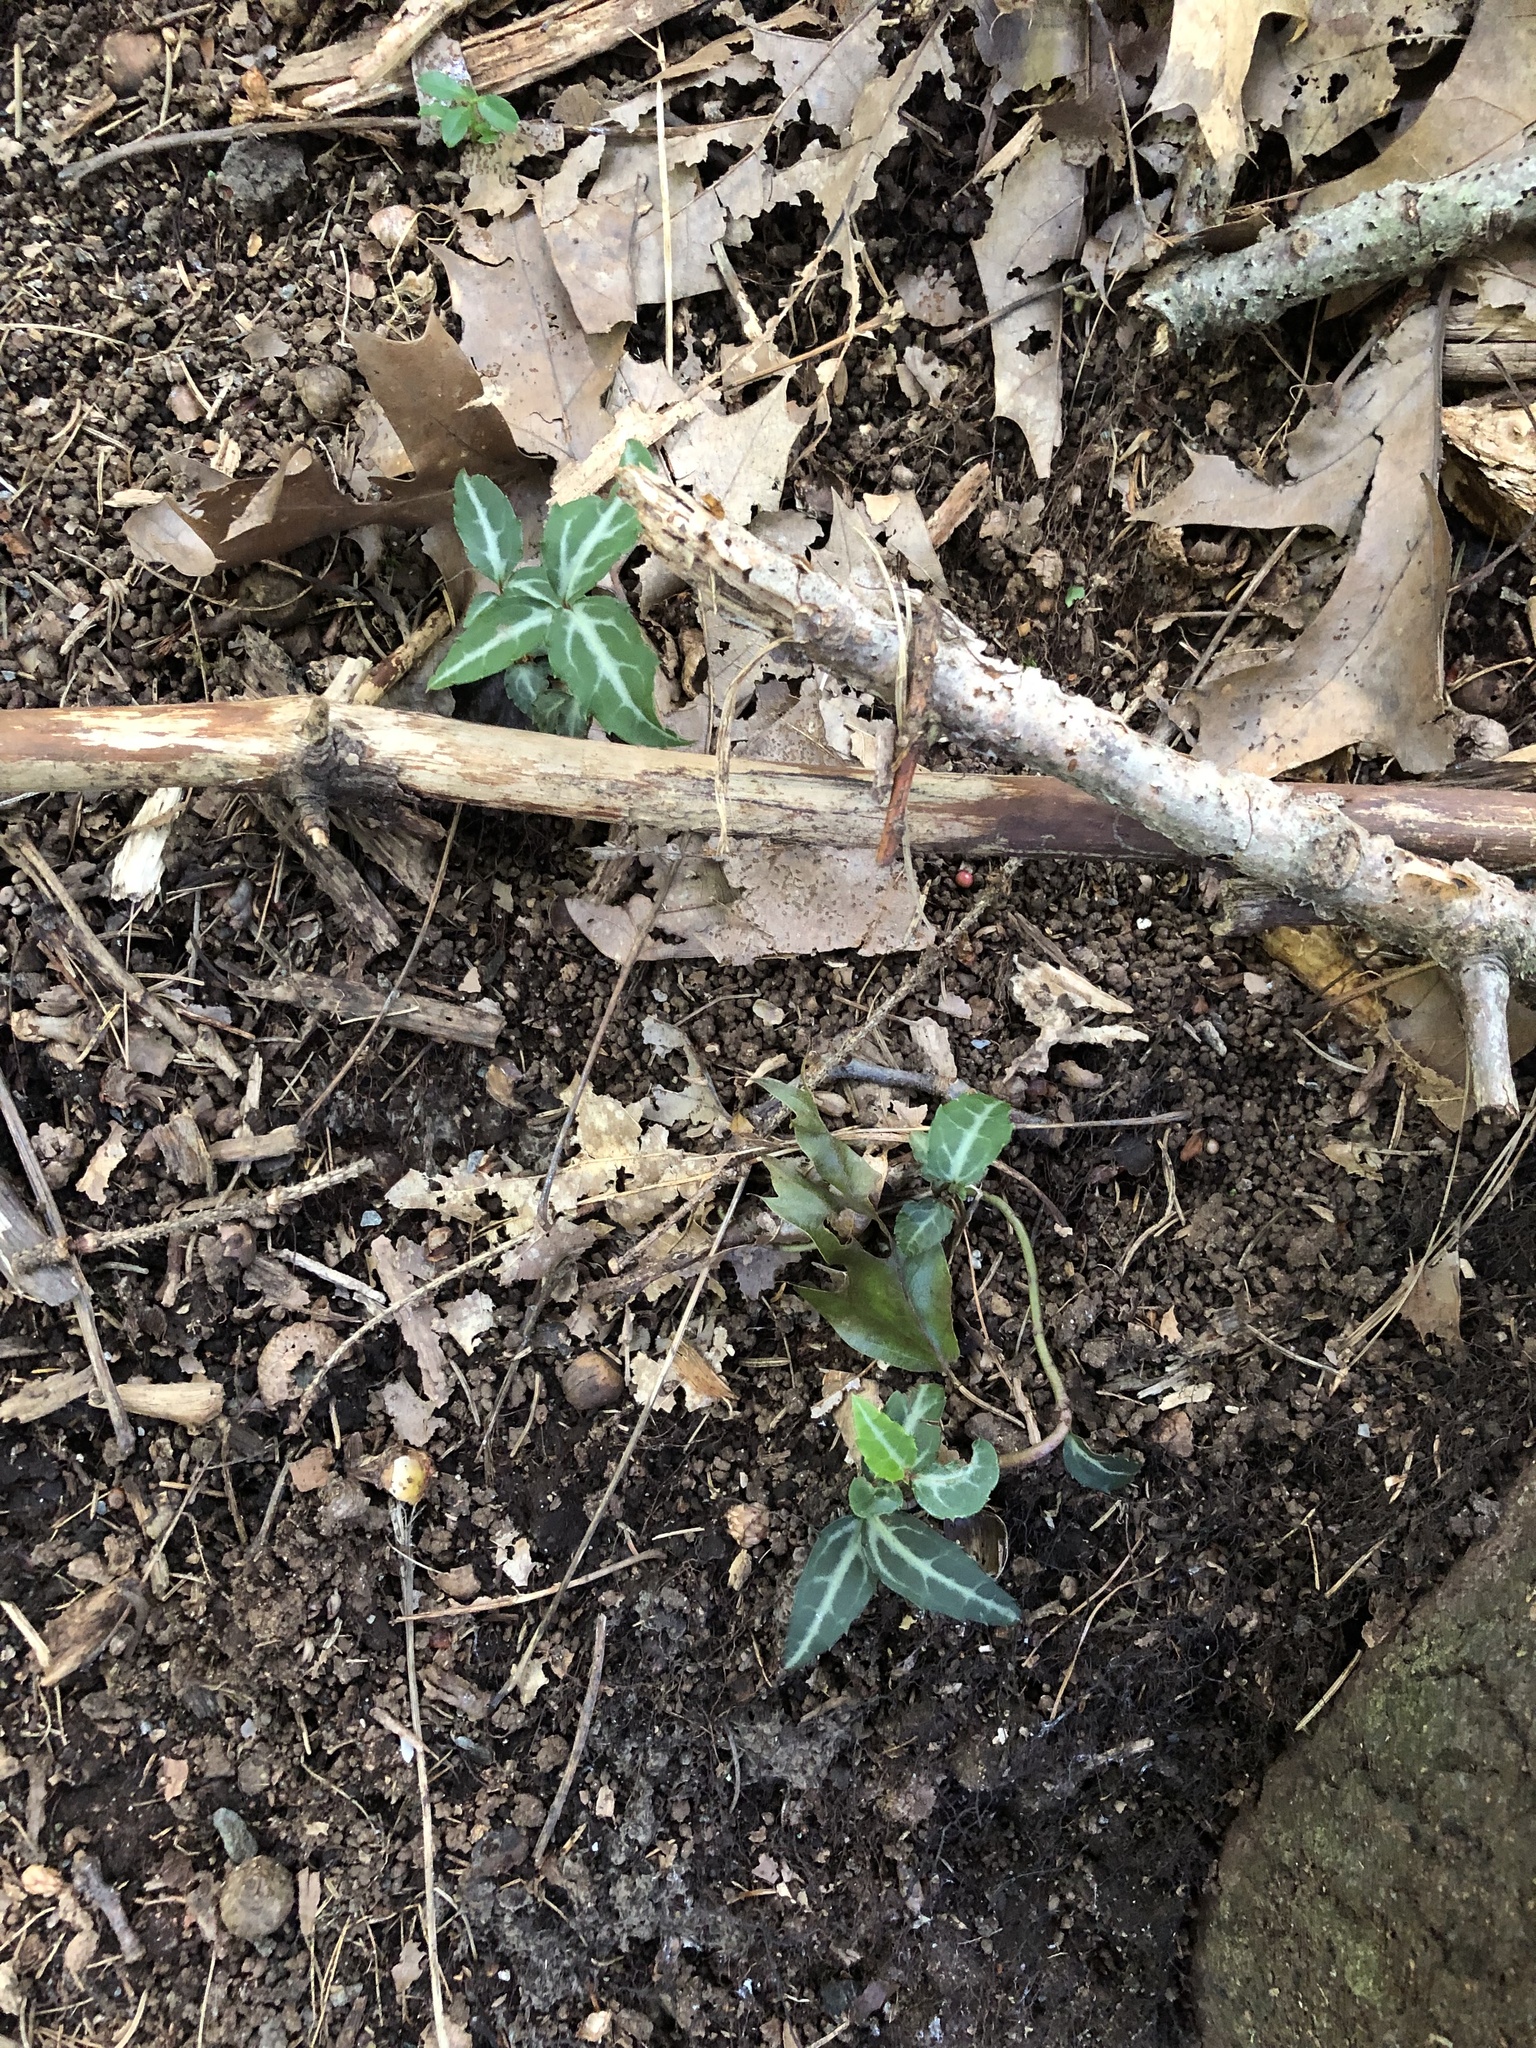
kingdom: Plantae
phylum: Tracheophyta
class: Magnoliopsida
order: Ericales
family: Ericaceae
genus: Chimaphila
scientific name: Chimaphila maculata
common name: Spotted pipsissewa
